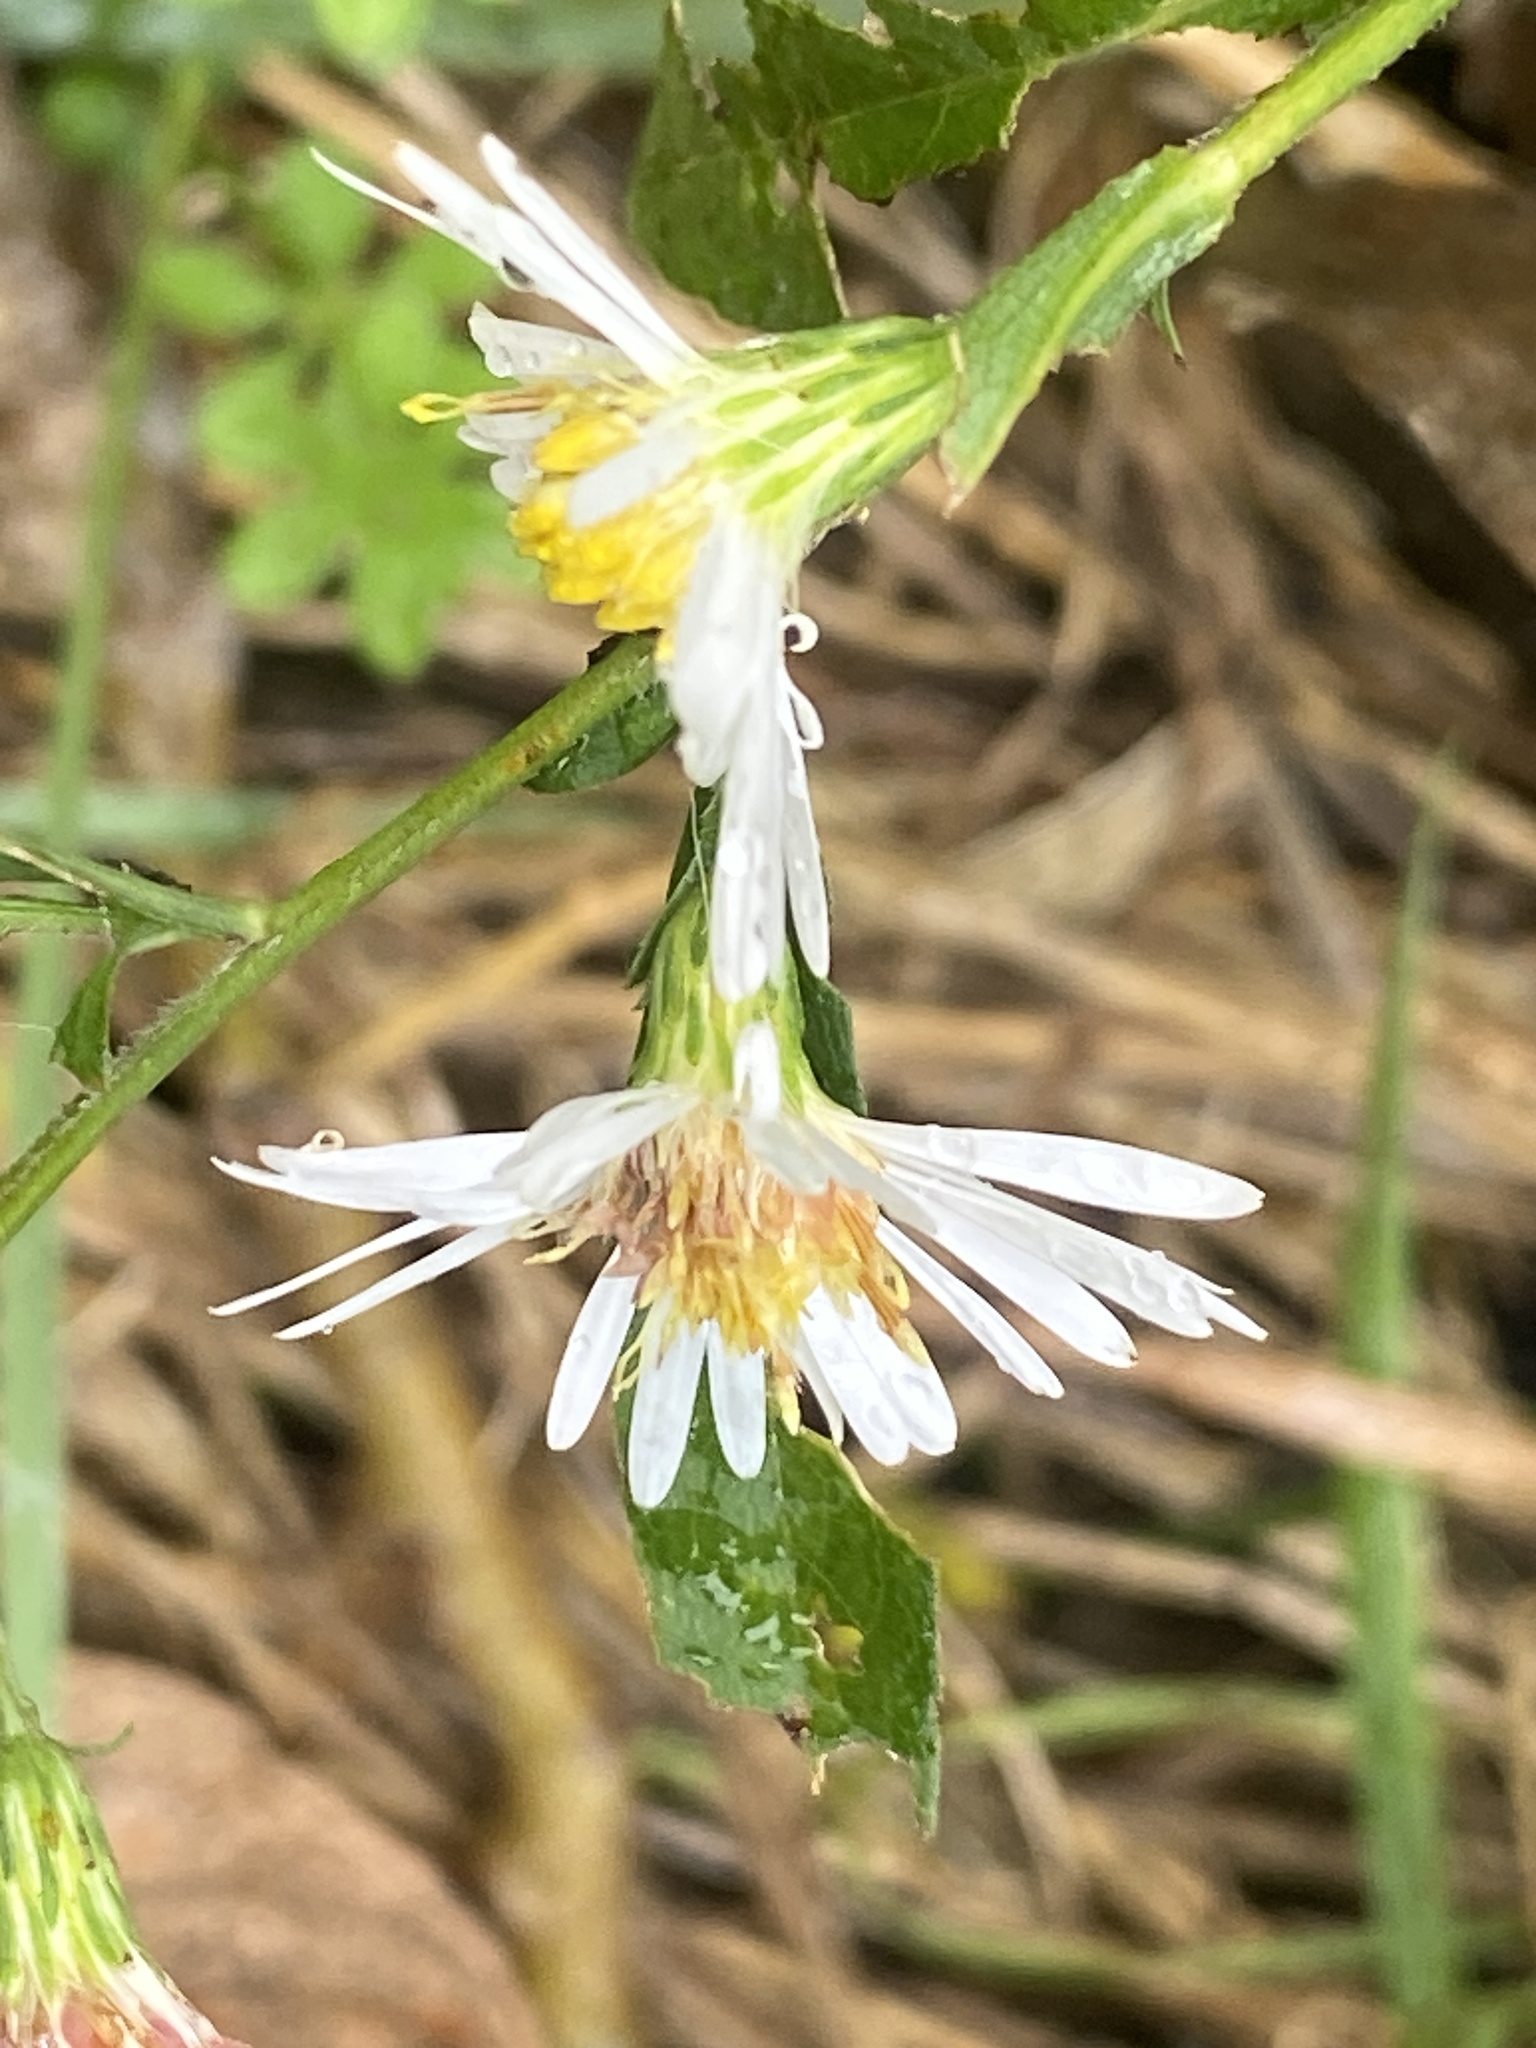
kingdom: Plantae
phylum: Tracheophyta
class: Magnoliopsida
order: Asterales
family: Asteraceae
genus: Symphyotrichum
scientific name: Symphyotrichum lanceolatum
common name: Panicled aster
